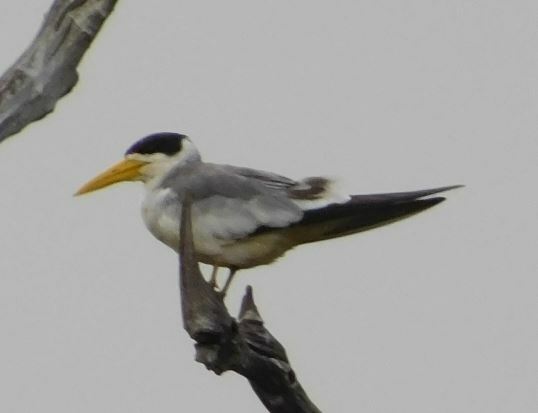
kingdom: Animalia
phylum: Chordata
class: Aves
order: Charadriiformes
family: Laridae
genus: Phaetusa
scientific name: Phaetusa simplex
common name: Large-billed tern
